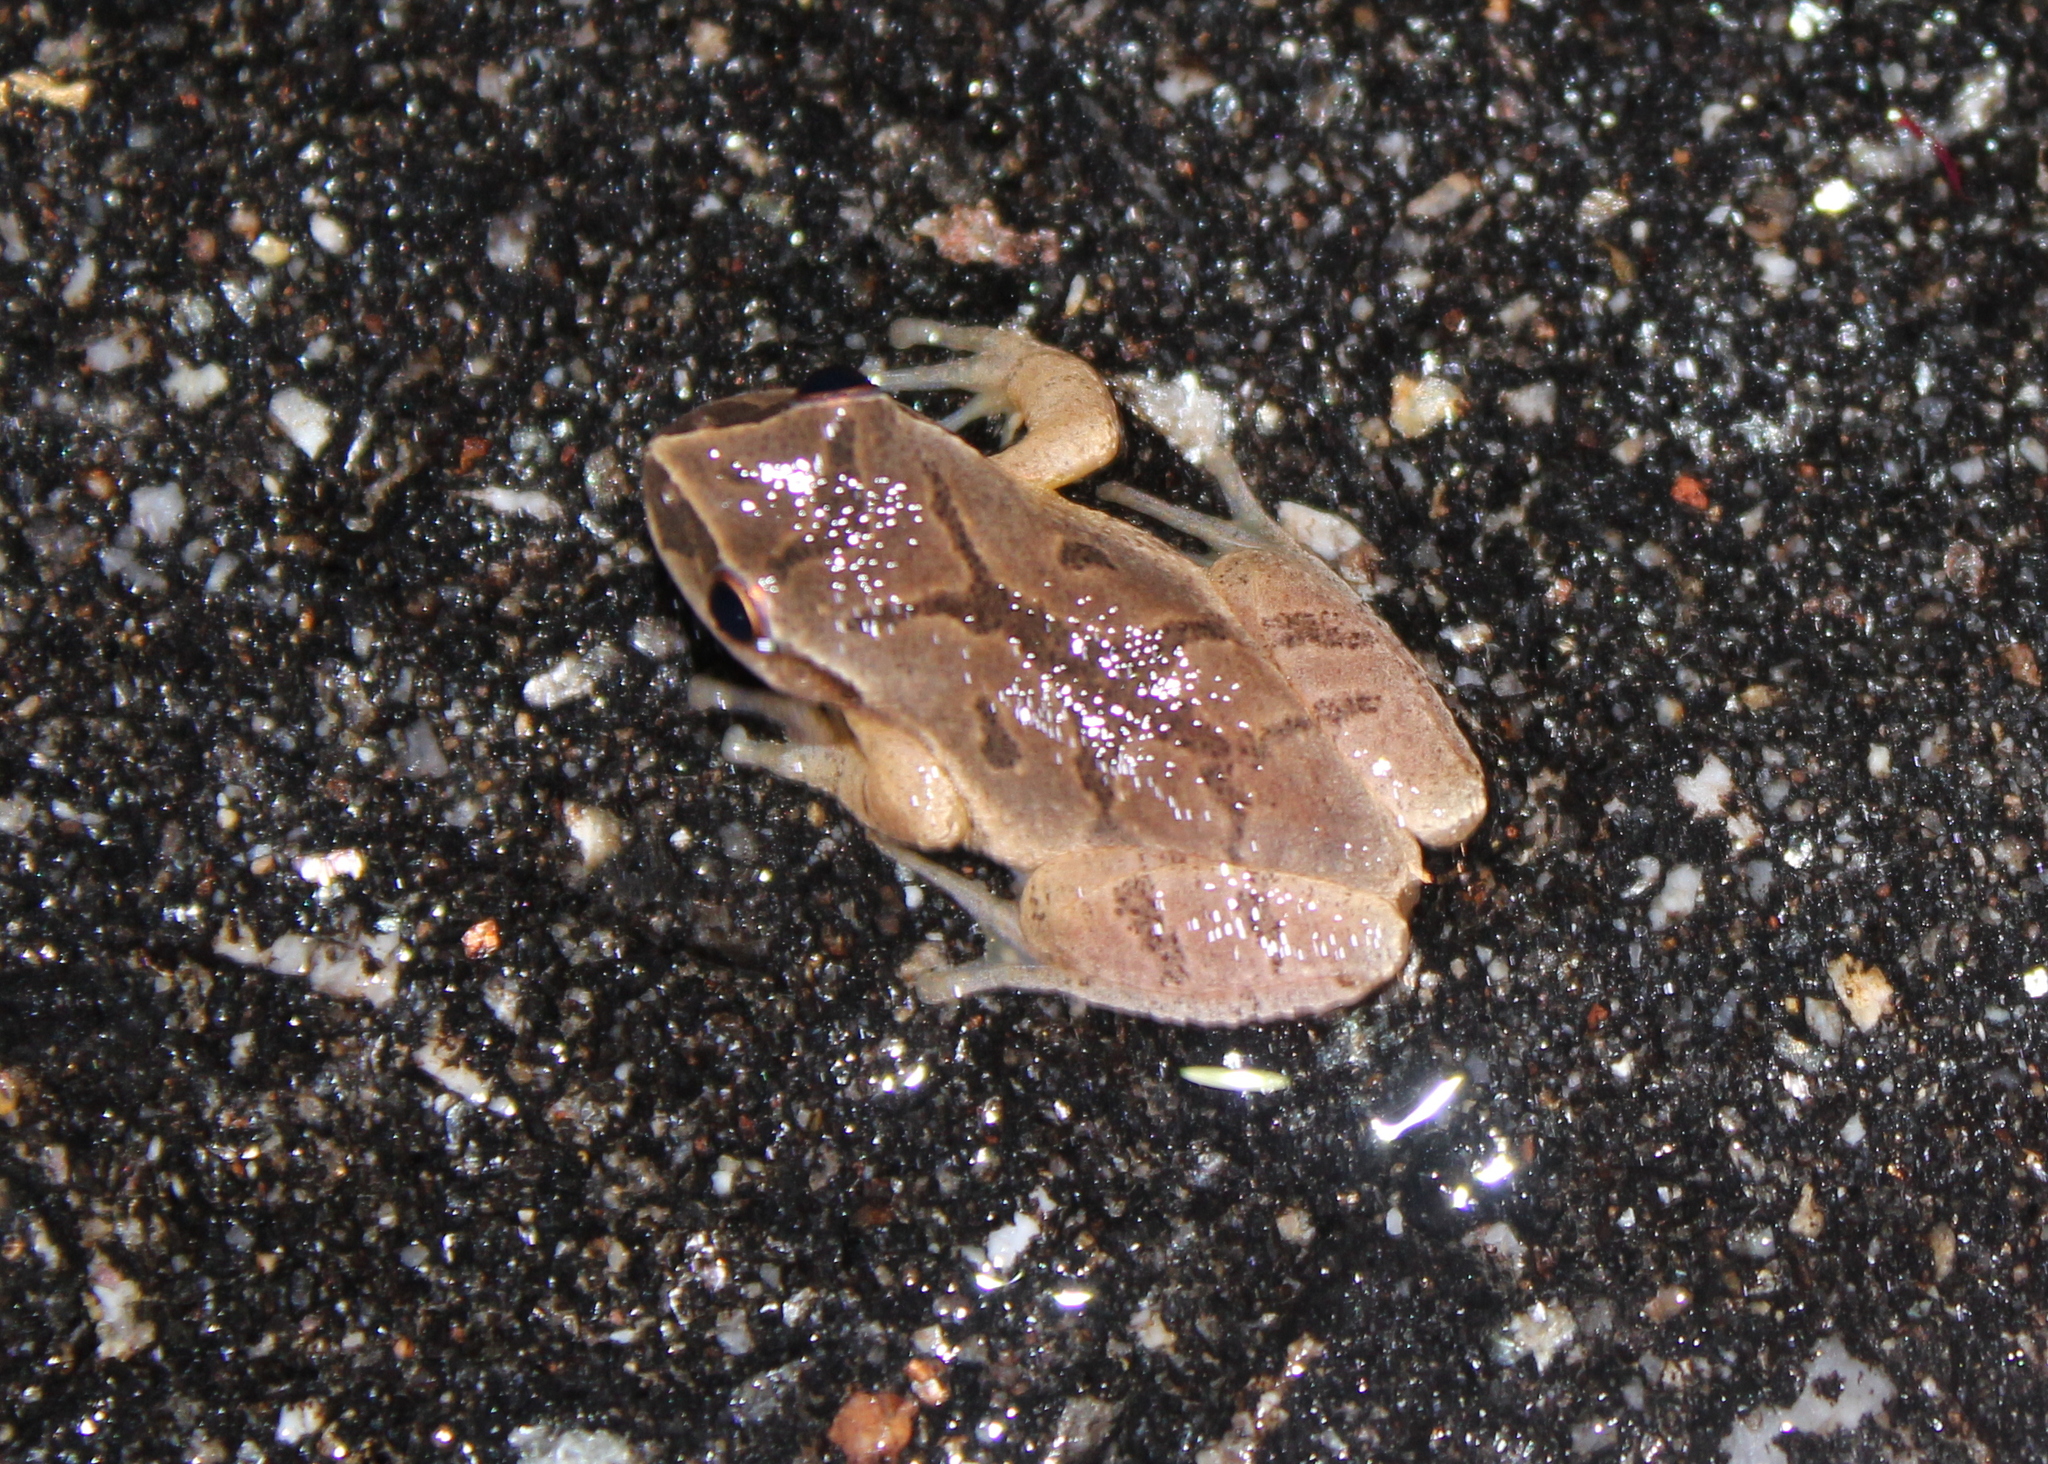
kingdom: Animalia
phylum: Chordata
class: Amphibia
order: Anura
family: Hylidae
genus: Pseudacris
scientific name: Pseudacris crucifer
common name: Spring peeper
